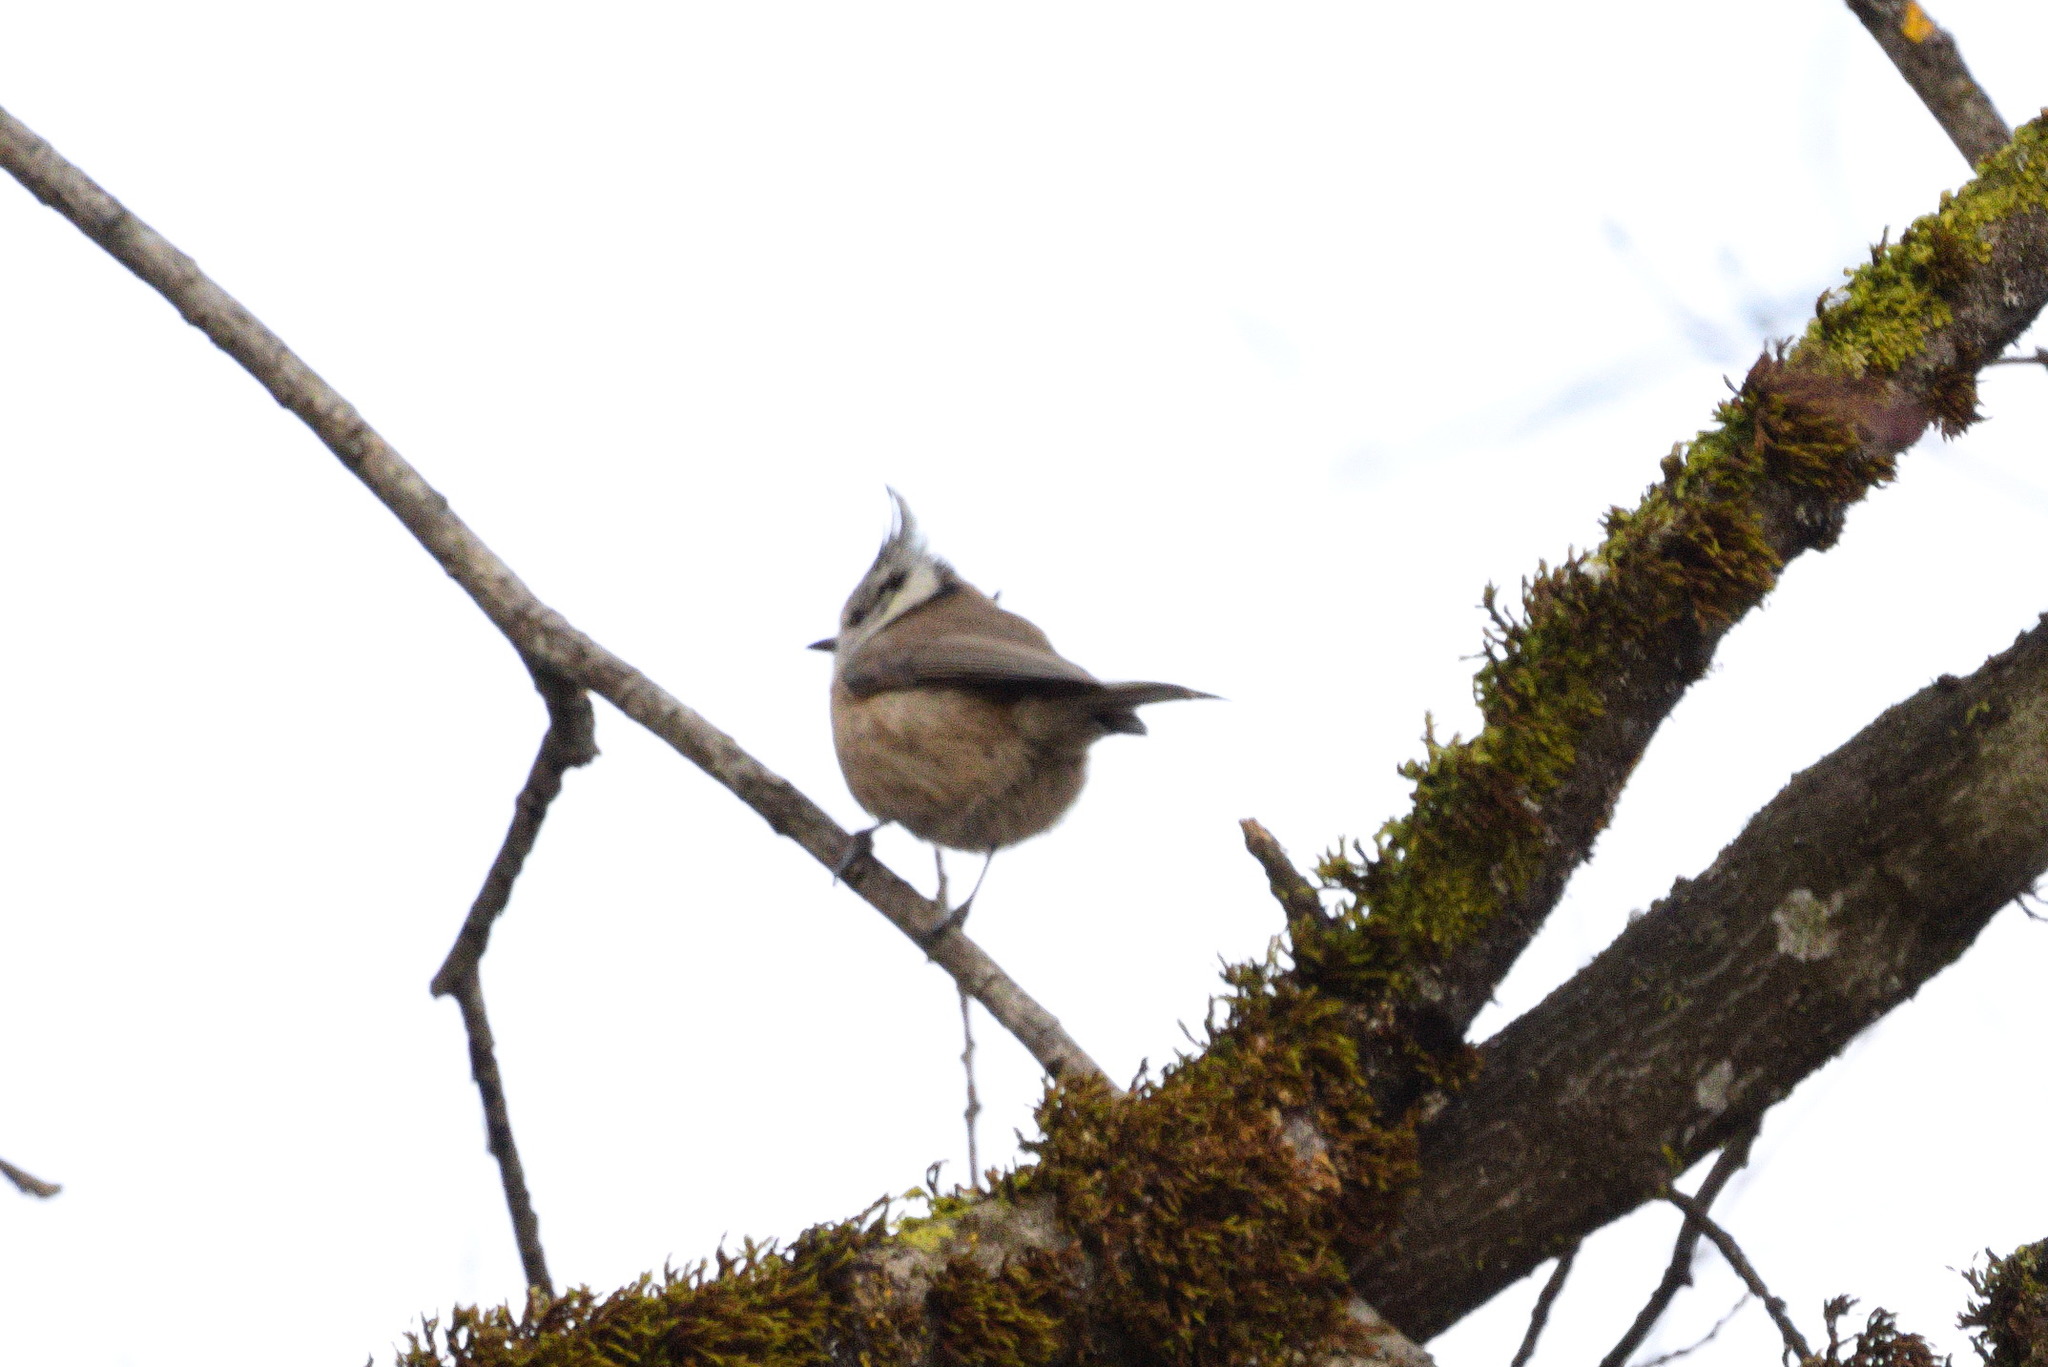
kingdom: Animalia
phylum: Chordata
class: Aves
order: Passeriformes
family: Paridae
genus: Lophophanes
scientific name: Lophophanes cristatus
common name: European crested tit
